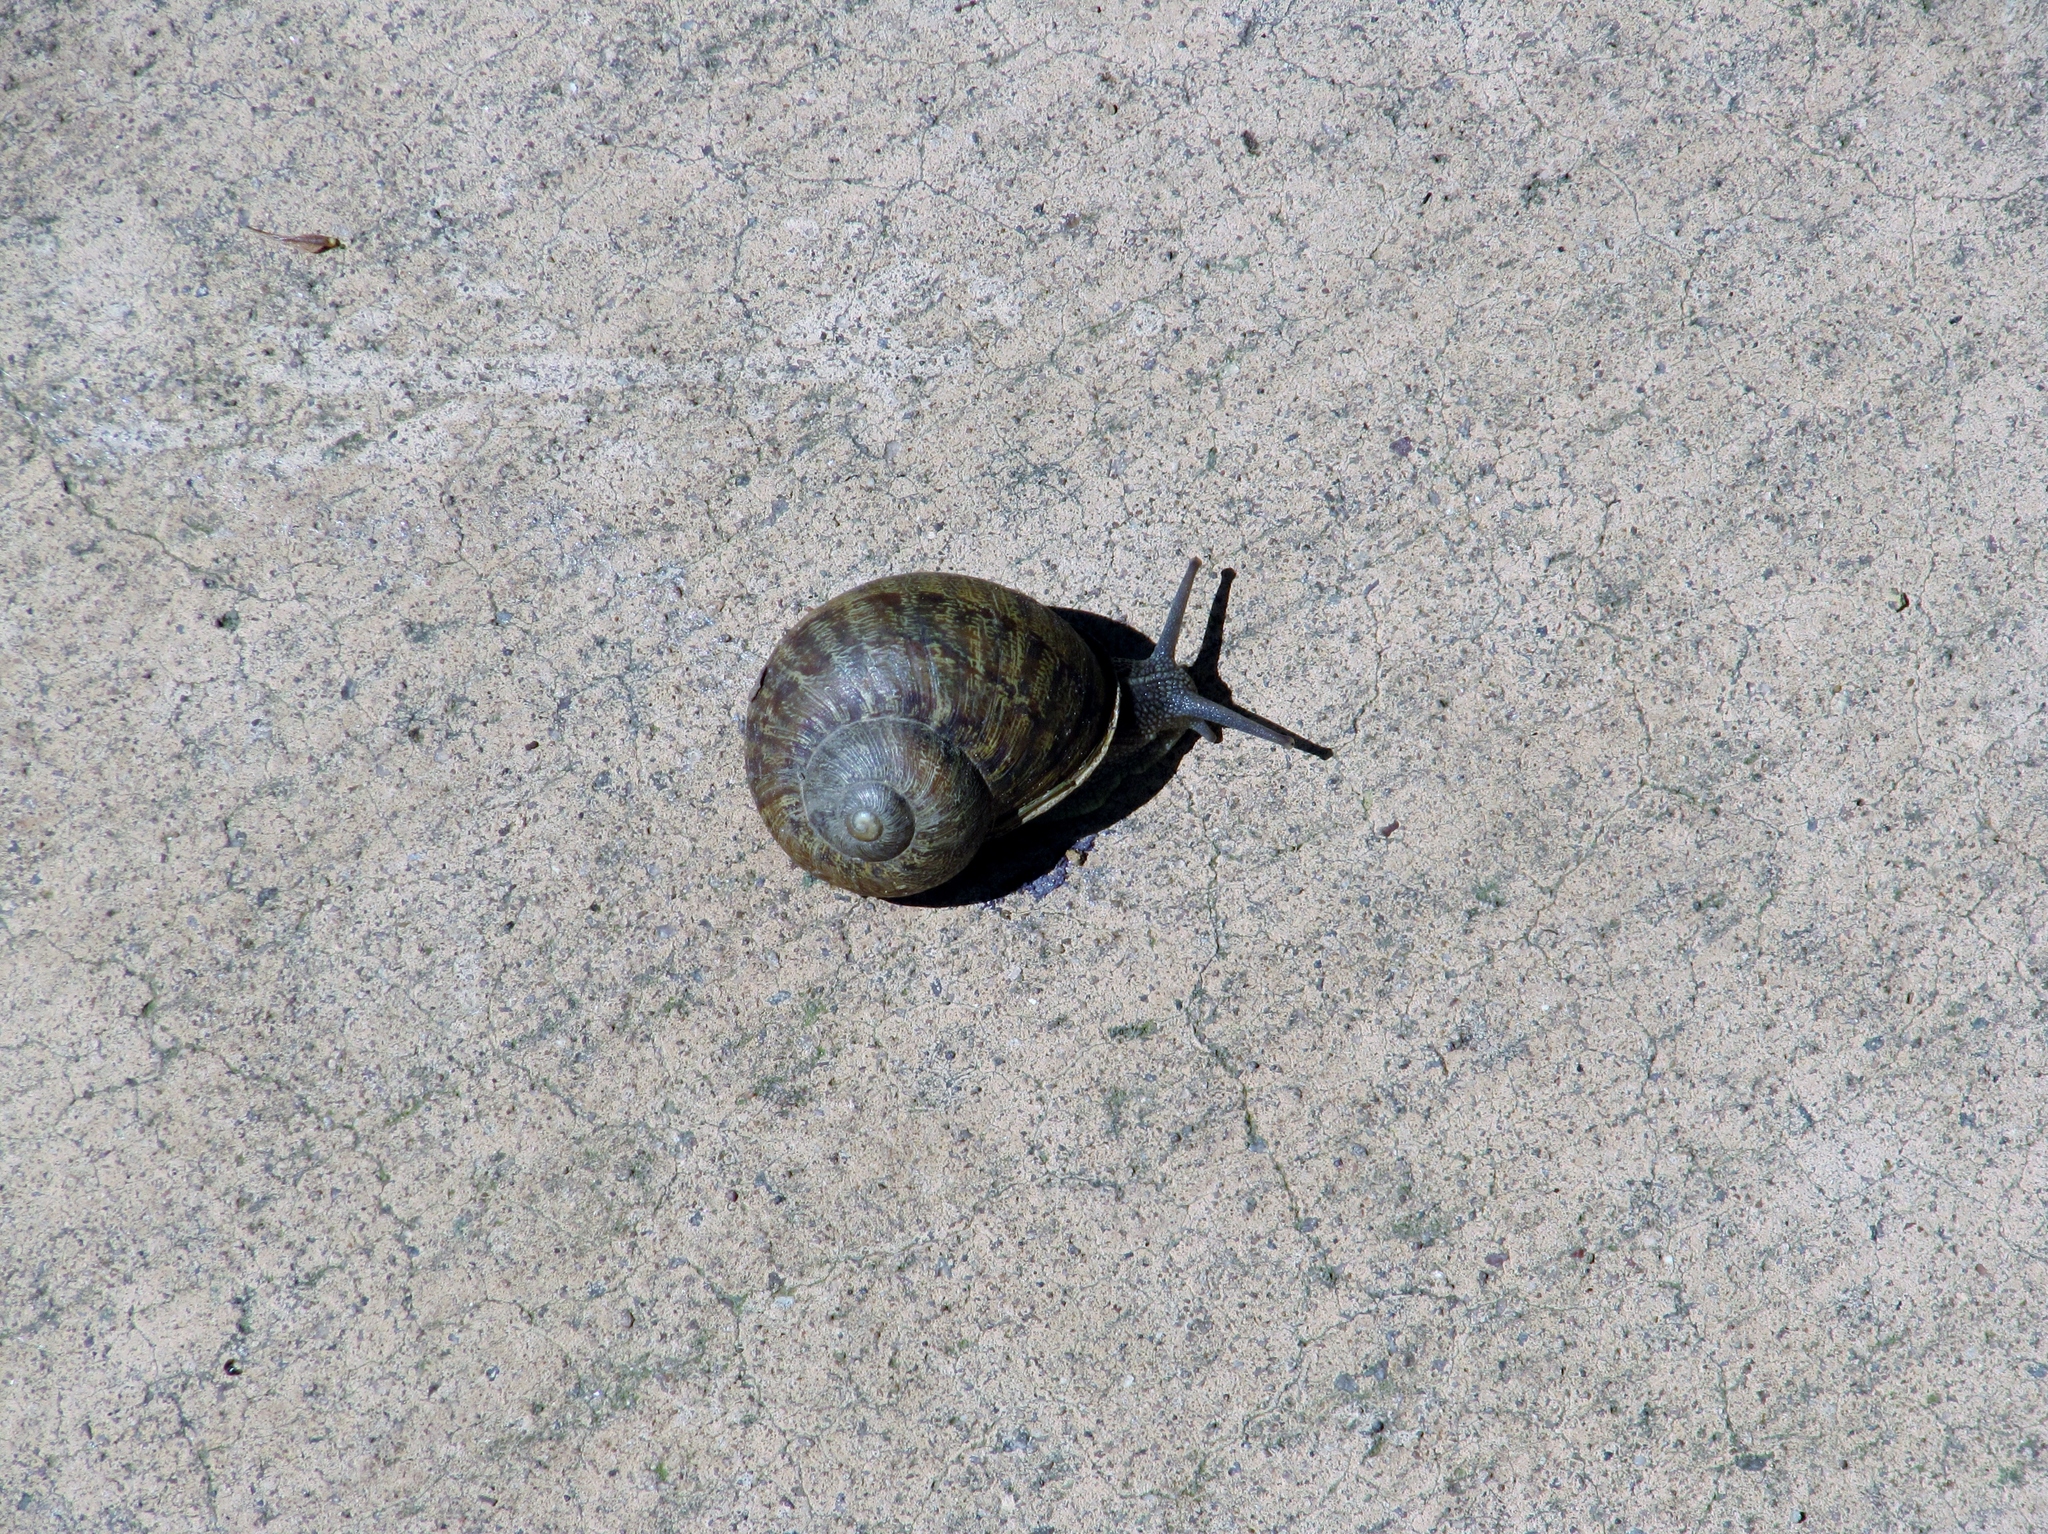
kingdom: Animalia
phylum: Mollusca
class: Gastropoda
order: Stylommatophora
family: Helicidae
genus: Cornu
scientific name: Cornu aspersum
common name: Brown garden snail
